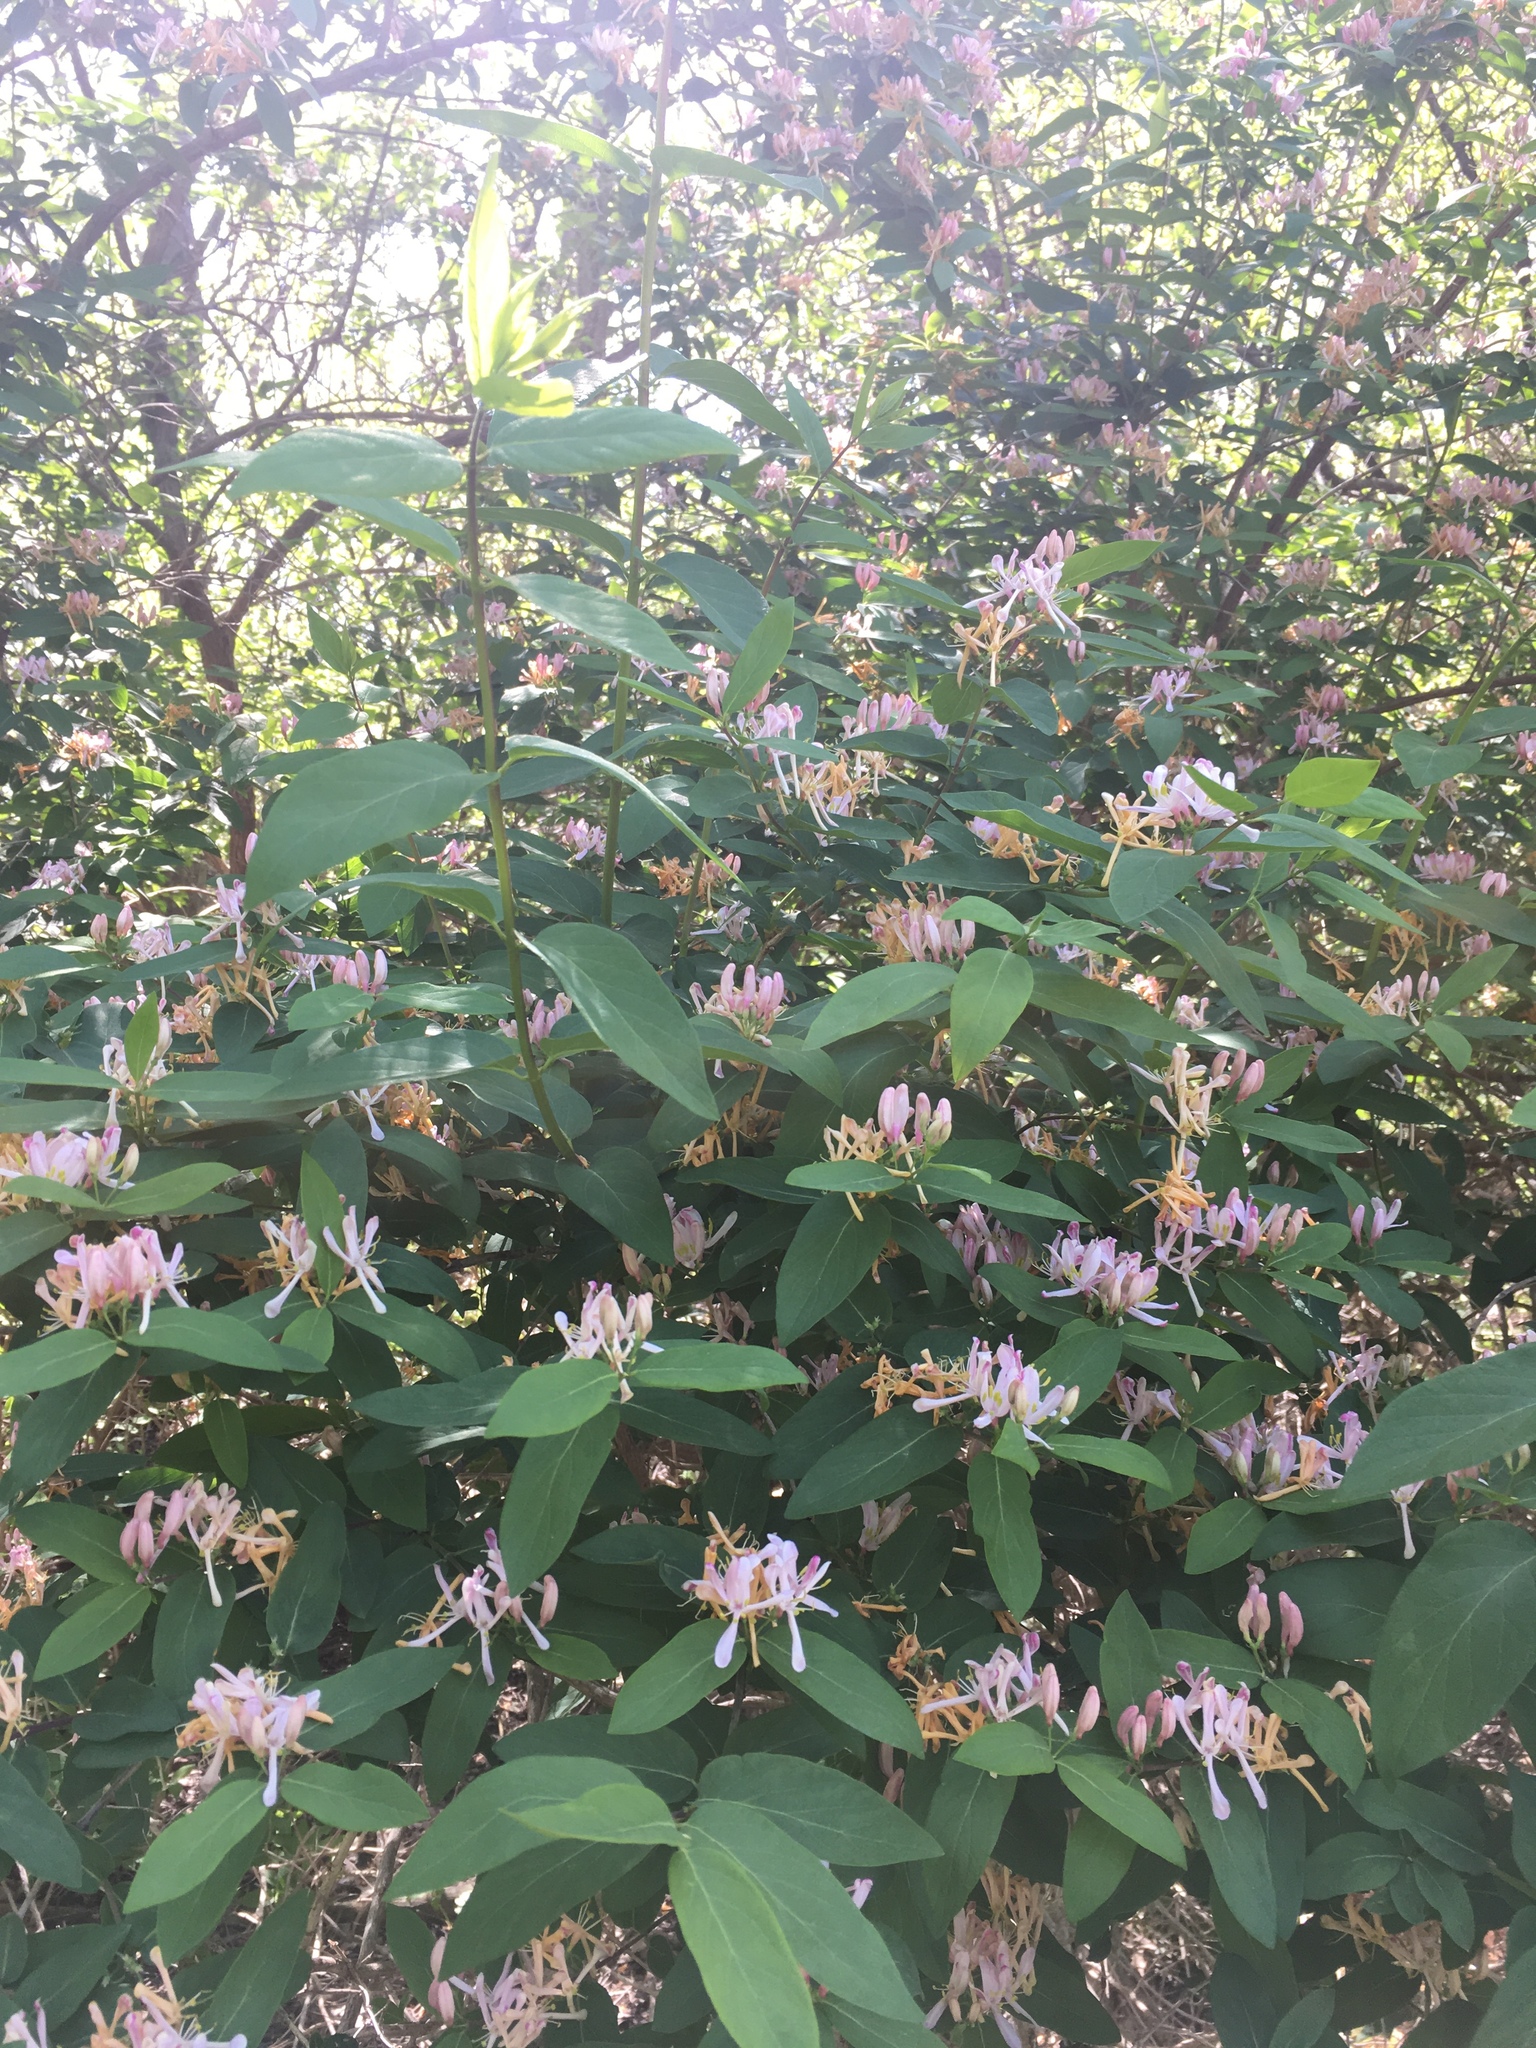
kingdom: Plantae
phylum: Tracheophyta
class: Magnoliopsida
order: Dipsacales
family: Caprifoliaceae
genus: Lonicera
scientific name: Lonicera tatarica
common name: Tatarian honeysuckle
